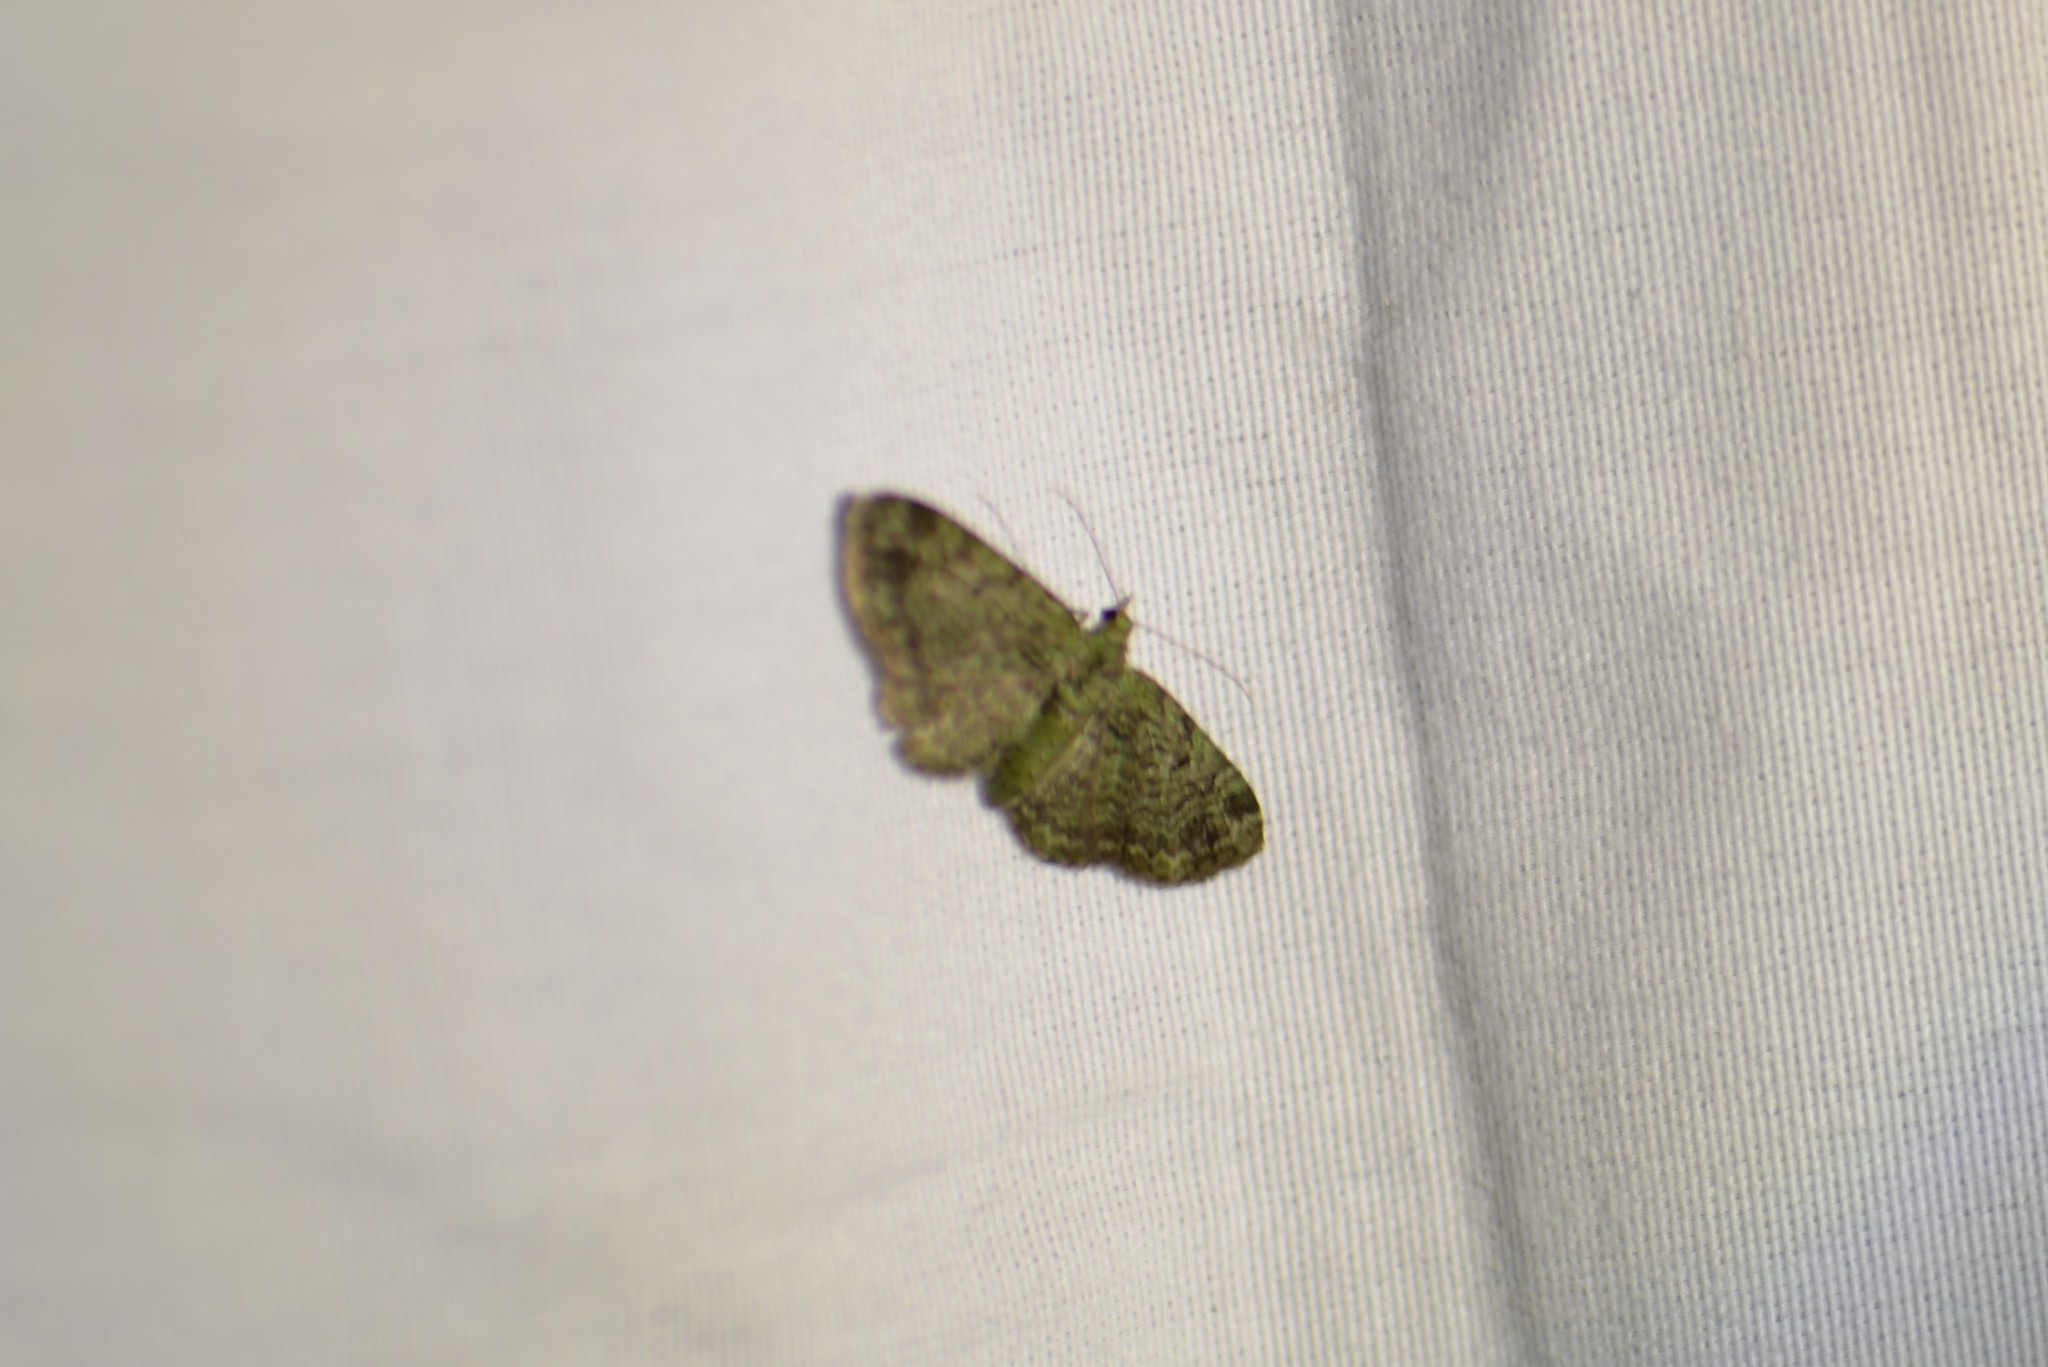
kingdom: Animalia
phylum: Arthropoda
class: Insecta
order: Lepidoptera
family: Geometridae
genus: Pasiphila
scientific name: Pasiphila rectangulata
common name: Green pug
